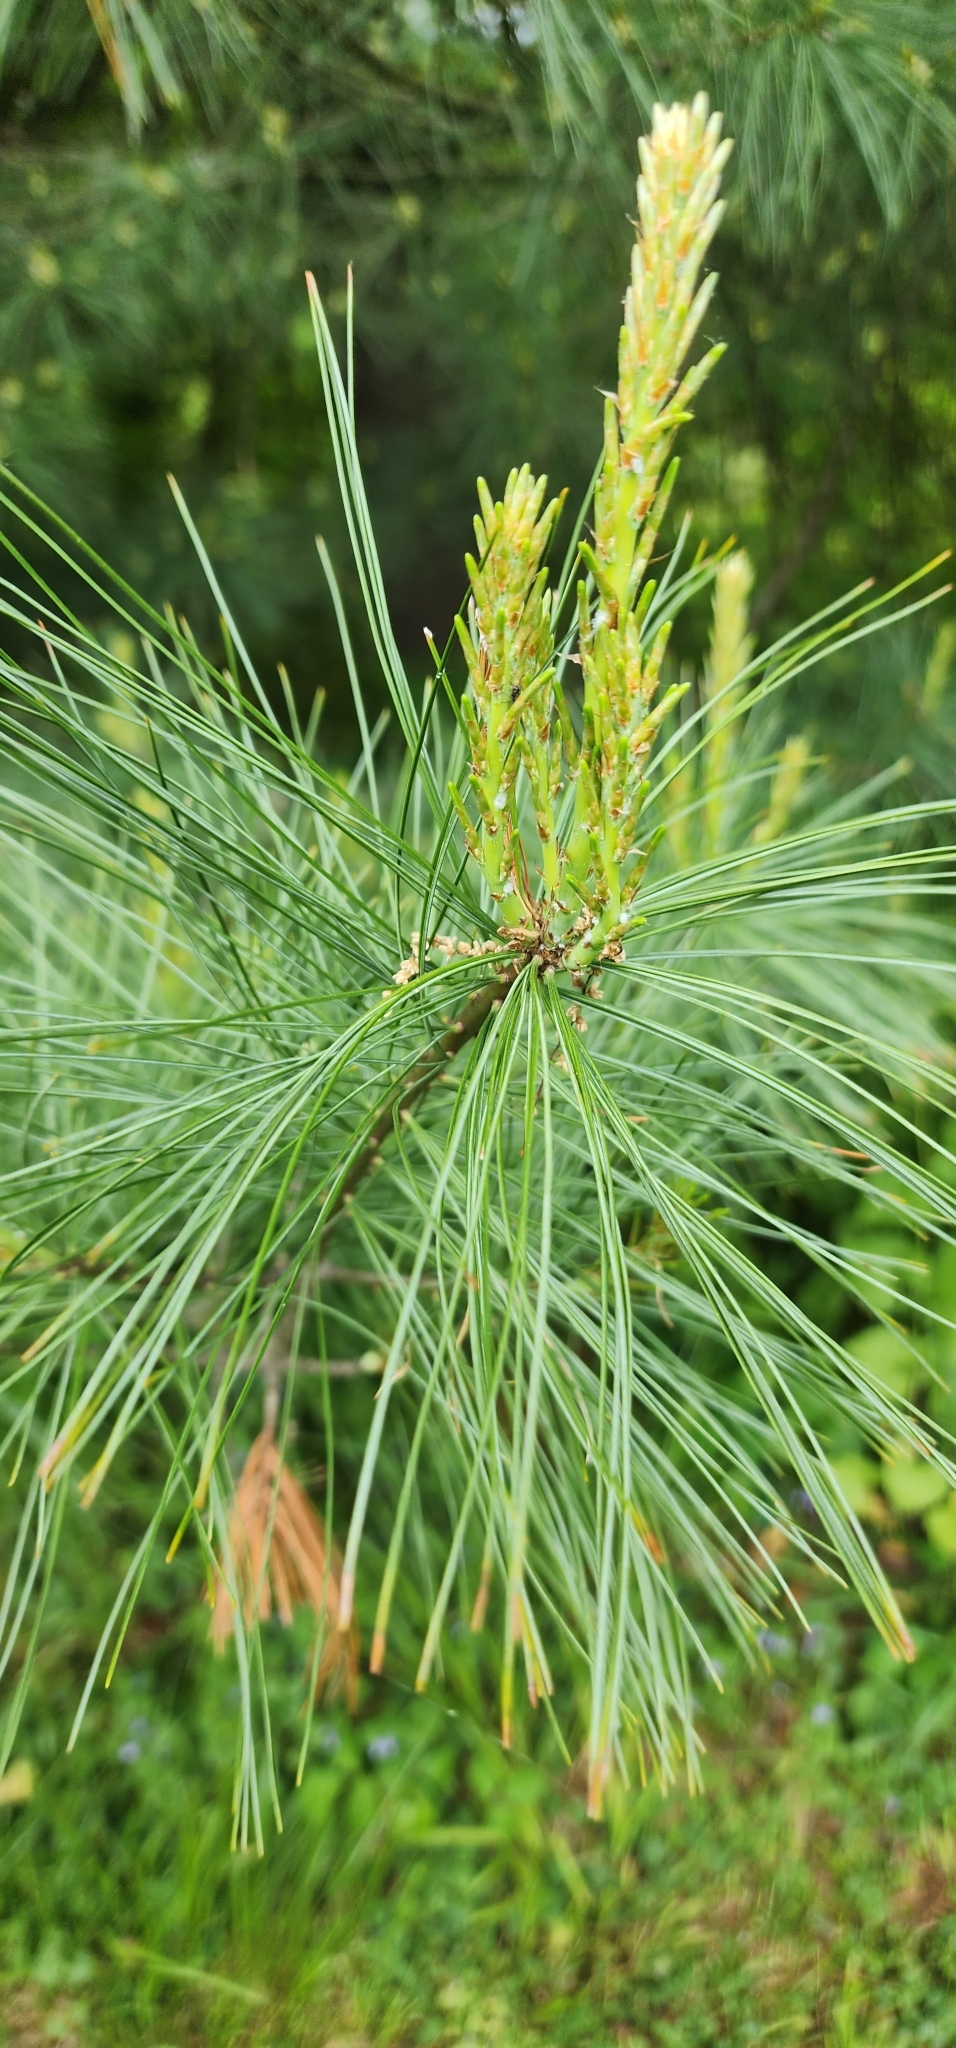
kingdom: Plantae
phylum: Tracheophyta
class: Pinopsida
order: Pinales
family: Pinaceae
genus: Pinus
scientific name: Pinus strobus
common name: Weymouth pine
